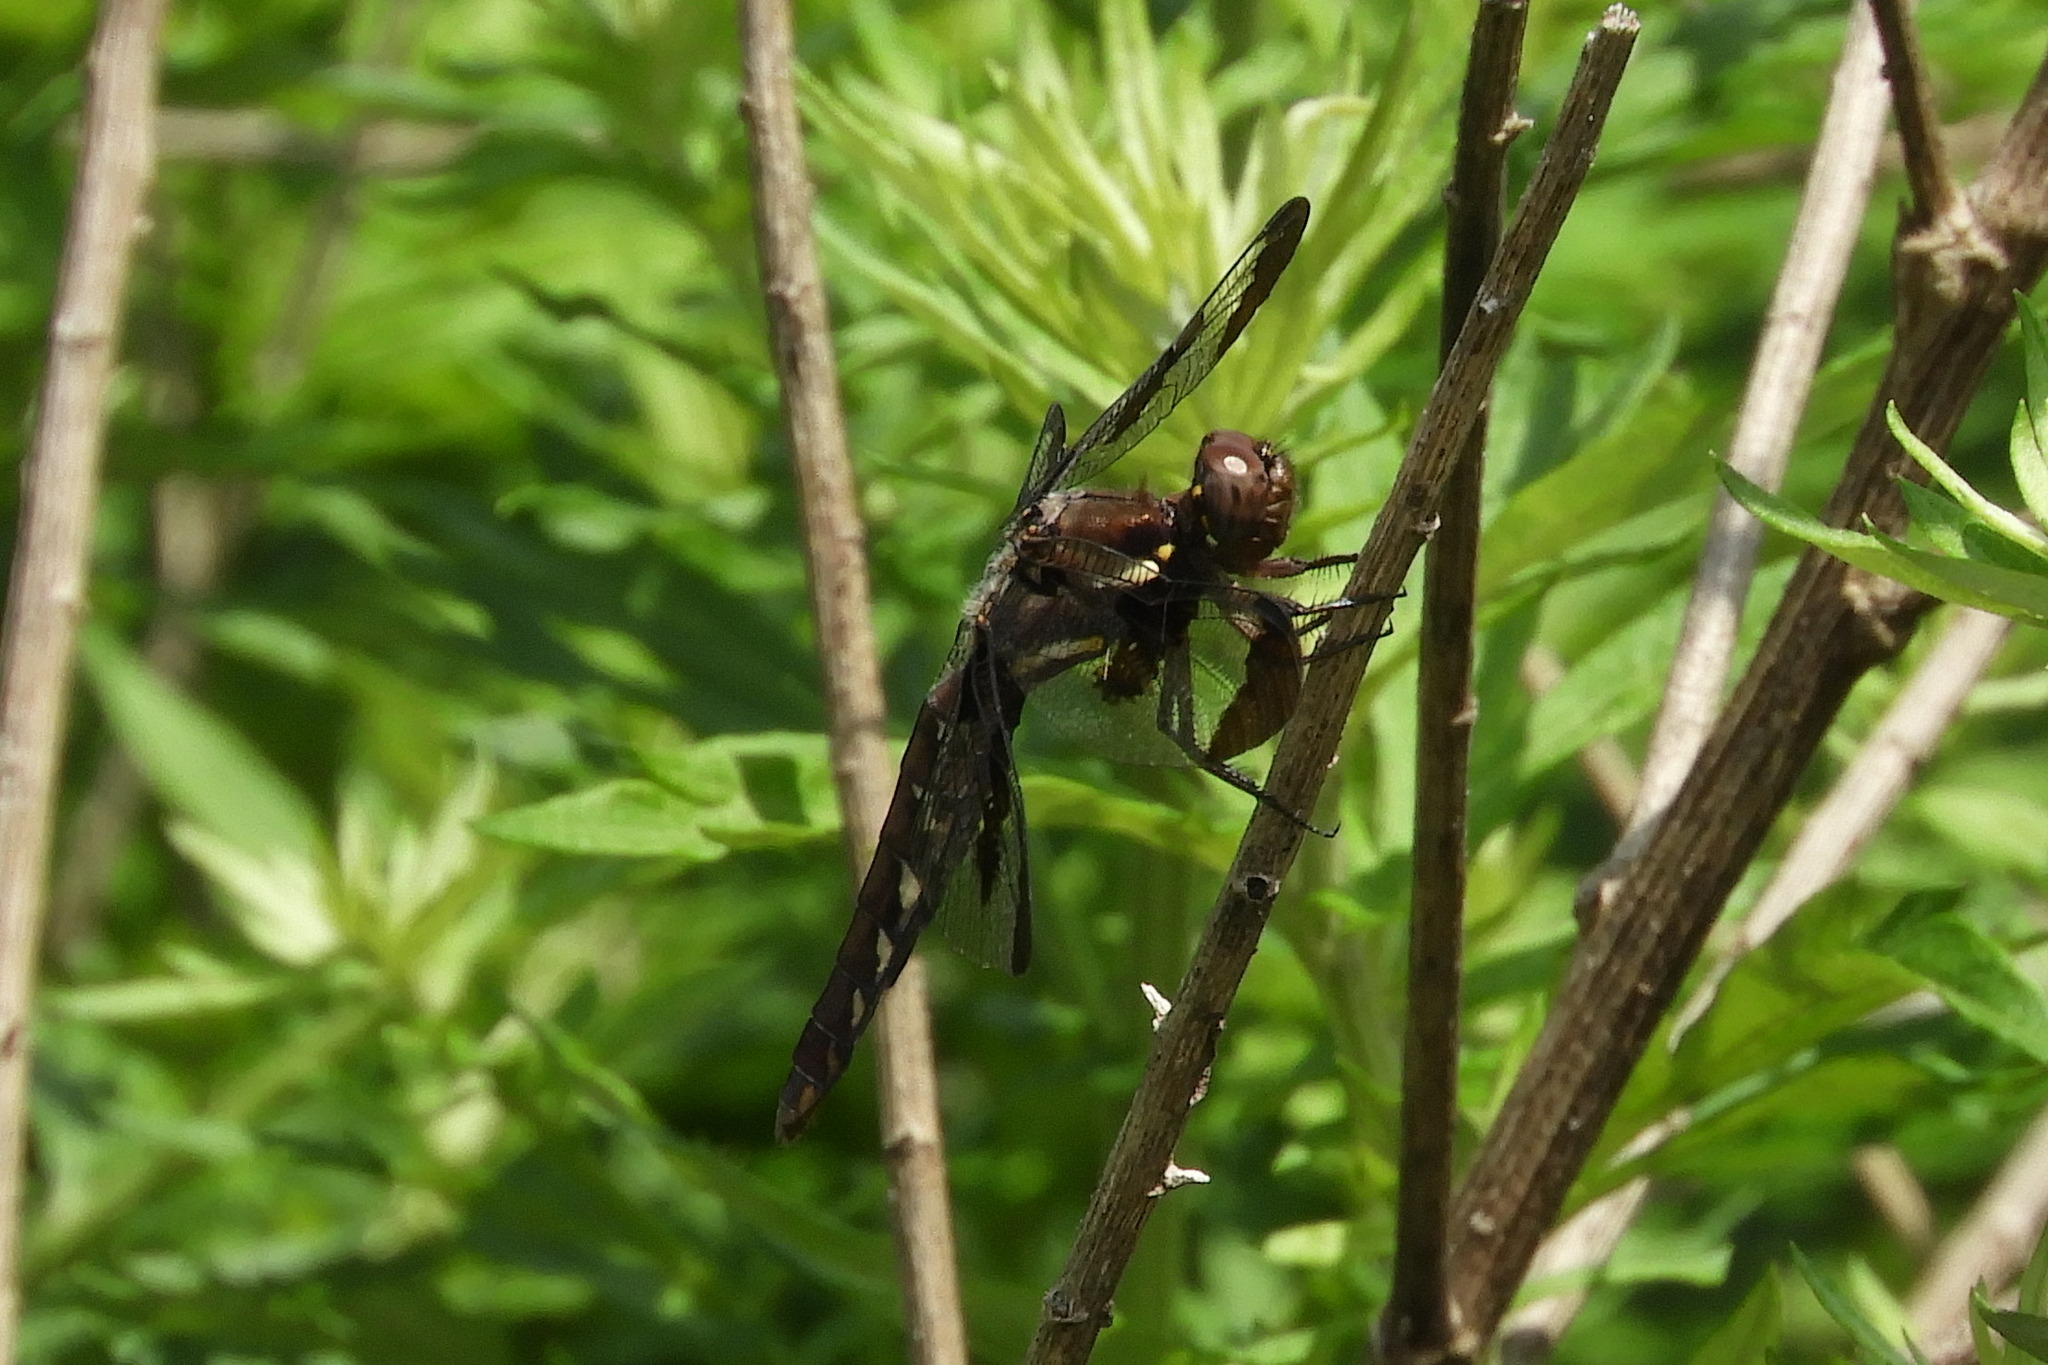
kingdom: Animalia
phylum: Arthropoda
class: Insecta
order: Odonata
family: Libellulidae
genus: Plathemis
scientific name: Plathemis lydia
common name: Common whitetail
